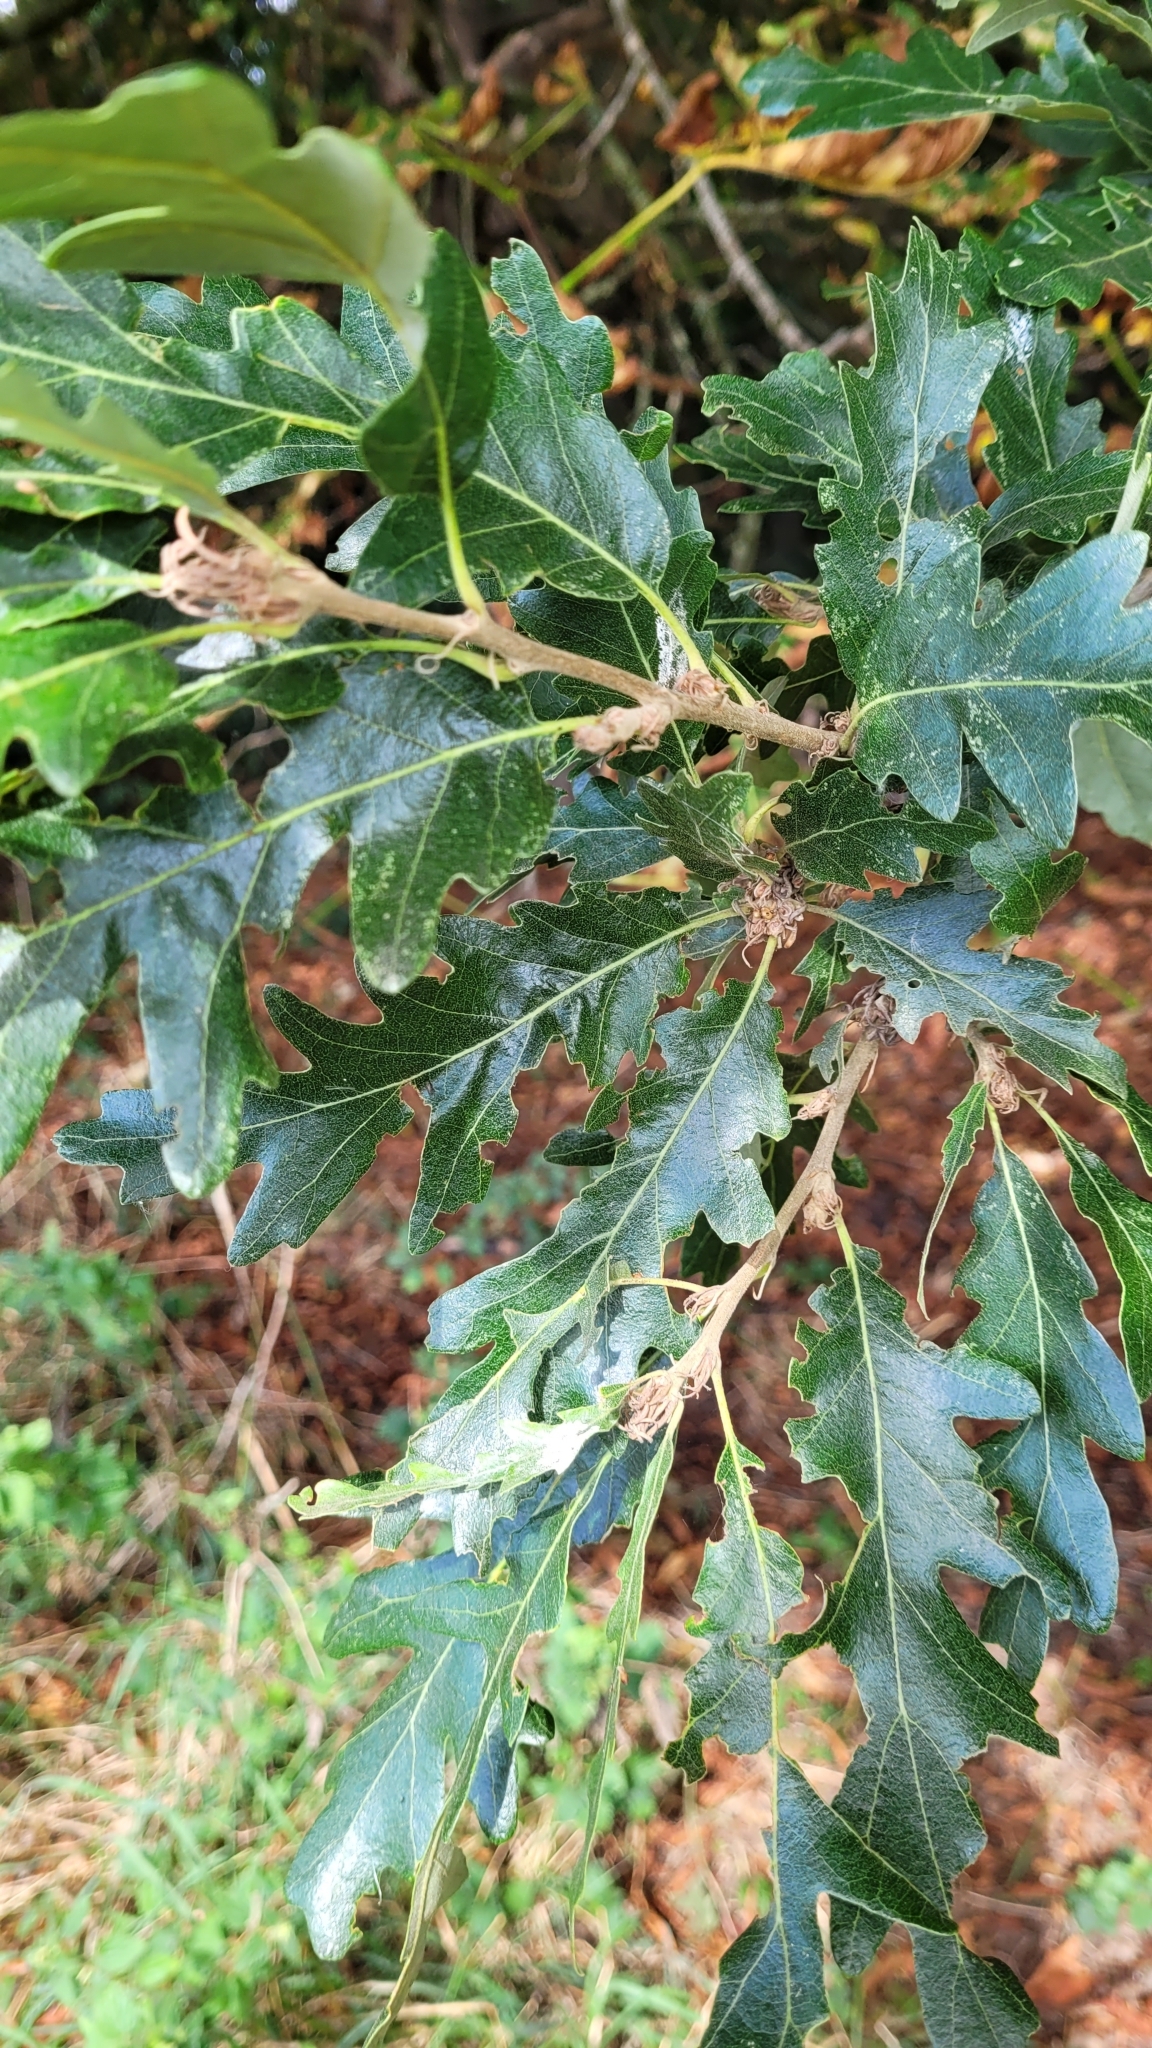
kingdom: Plantae
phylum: Tracheophyta
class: Magnoliopsida
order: Fagales
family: Fagaceae
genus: Quercus
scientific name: Quercus cerris
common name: Turkey oak
